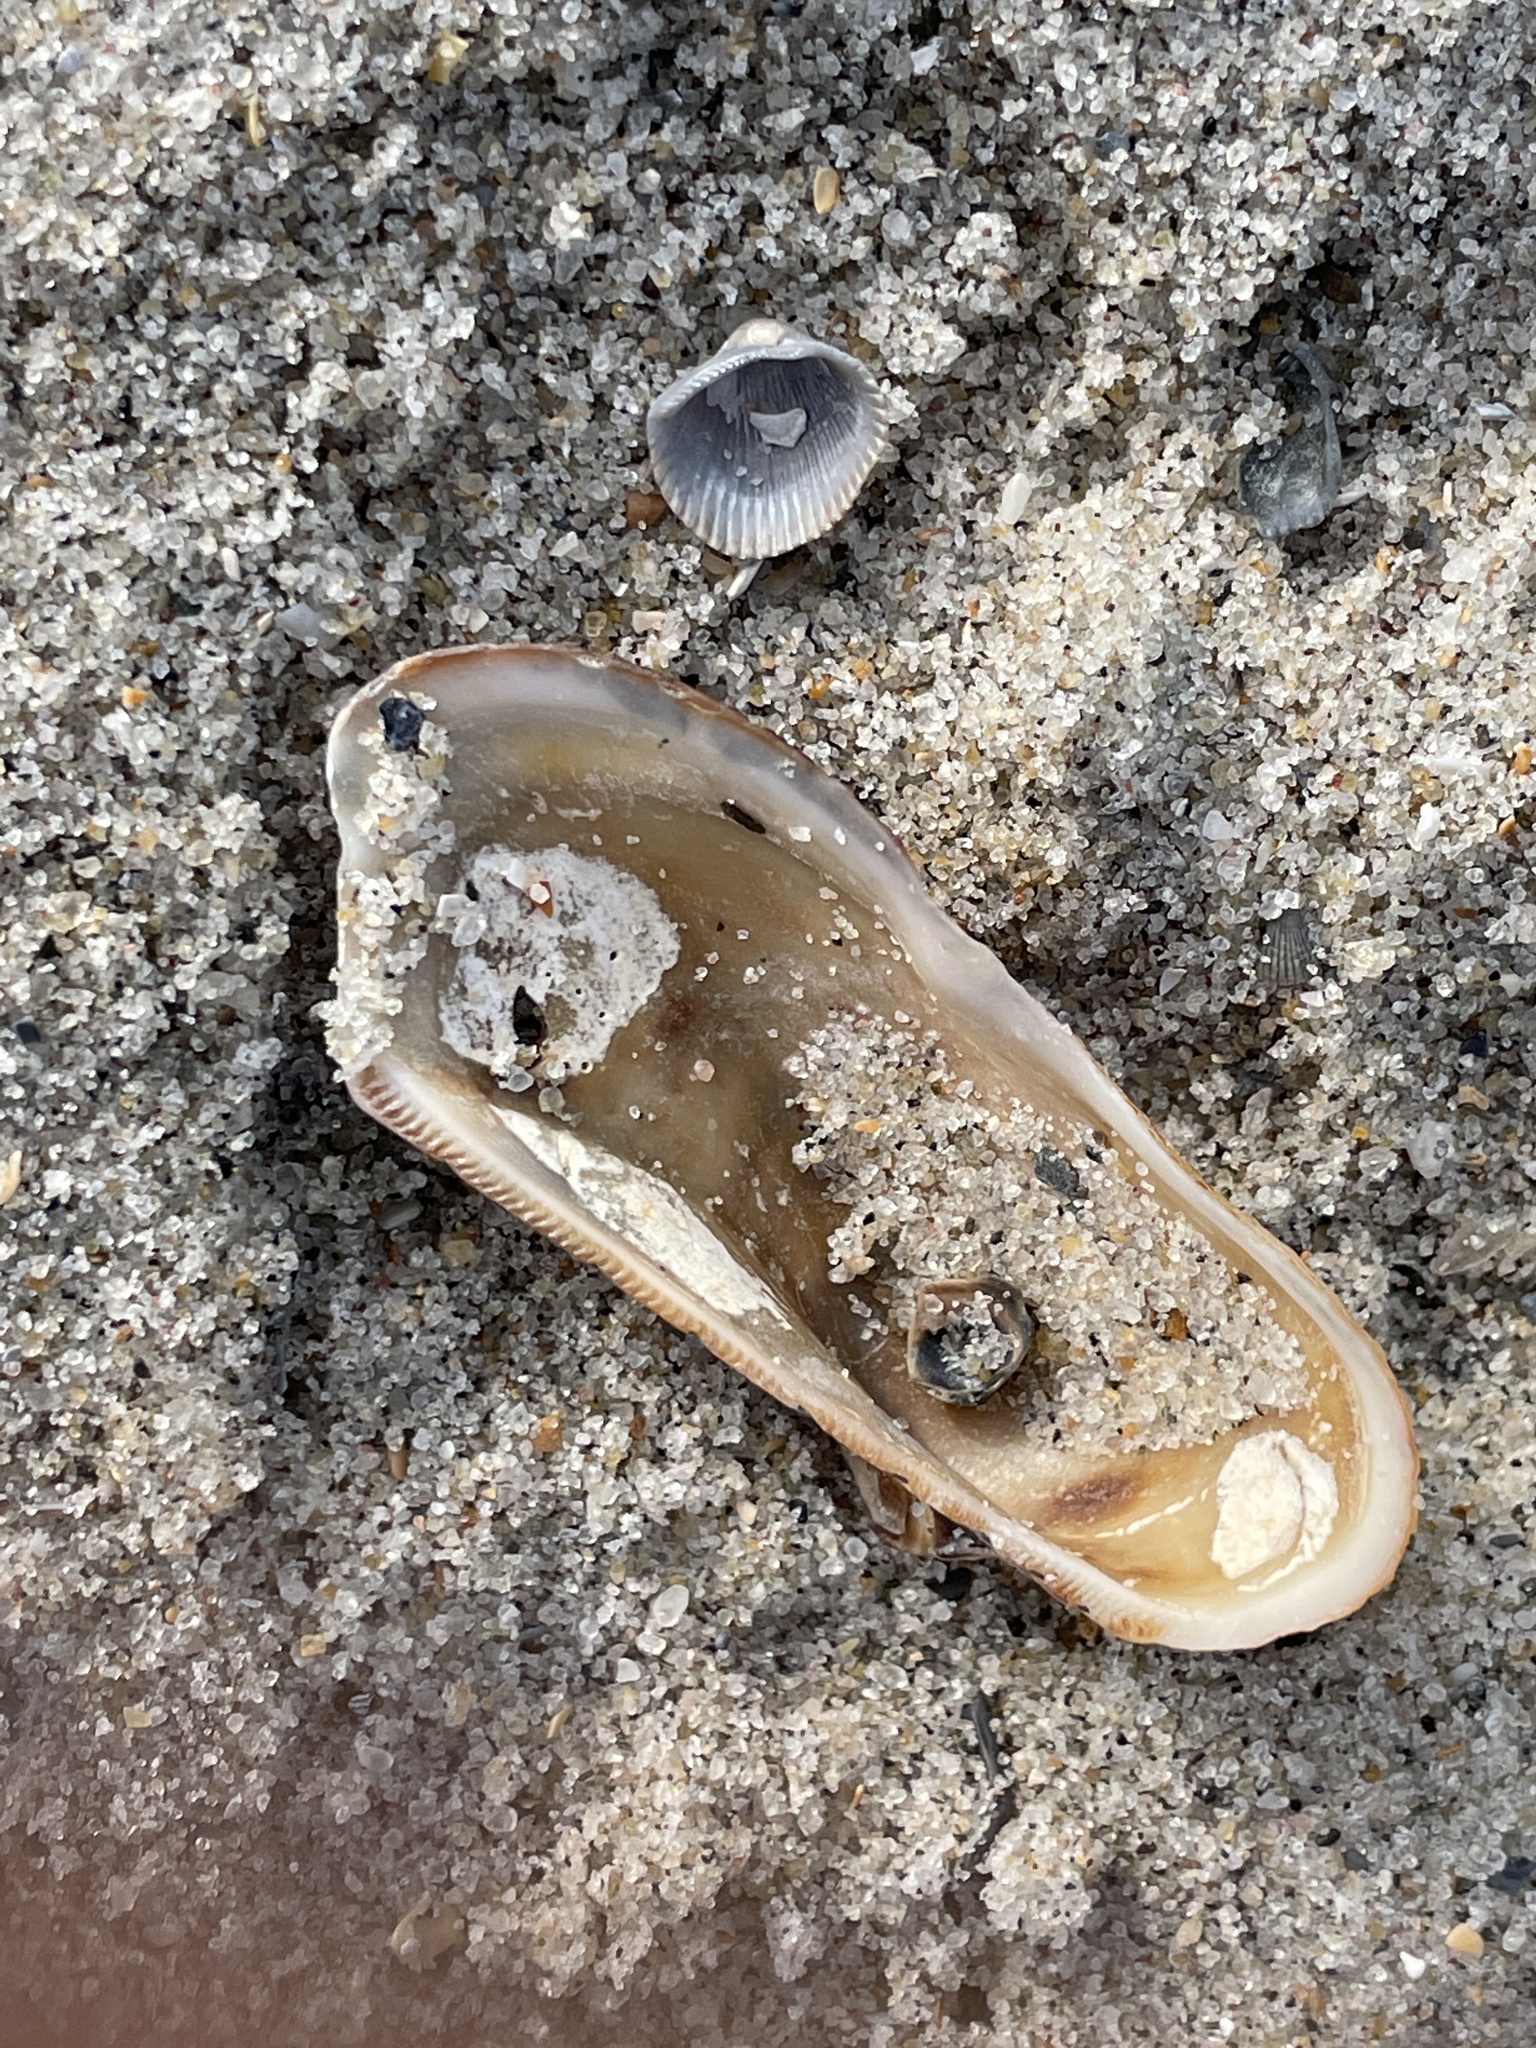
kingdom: Animalia
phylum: Mollusca
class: Bivalvia
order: Arcida
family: Arcidae
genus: Lamarcka
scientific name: Lamarcka imbricata
